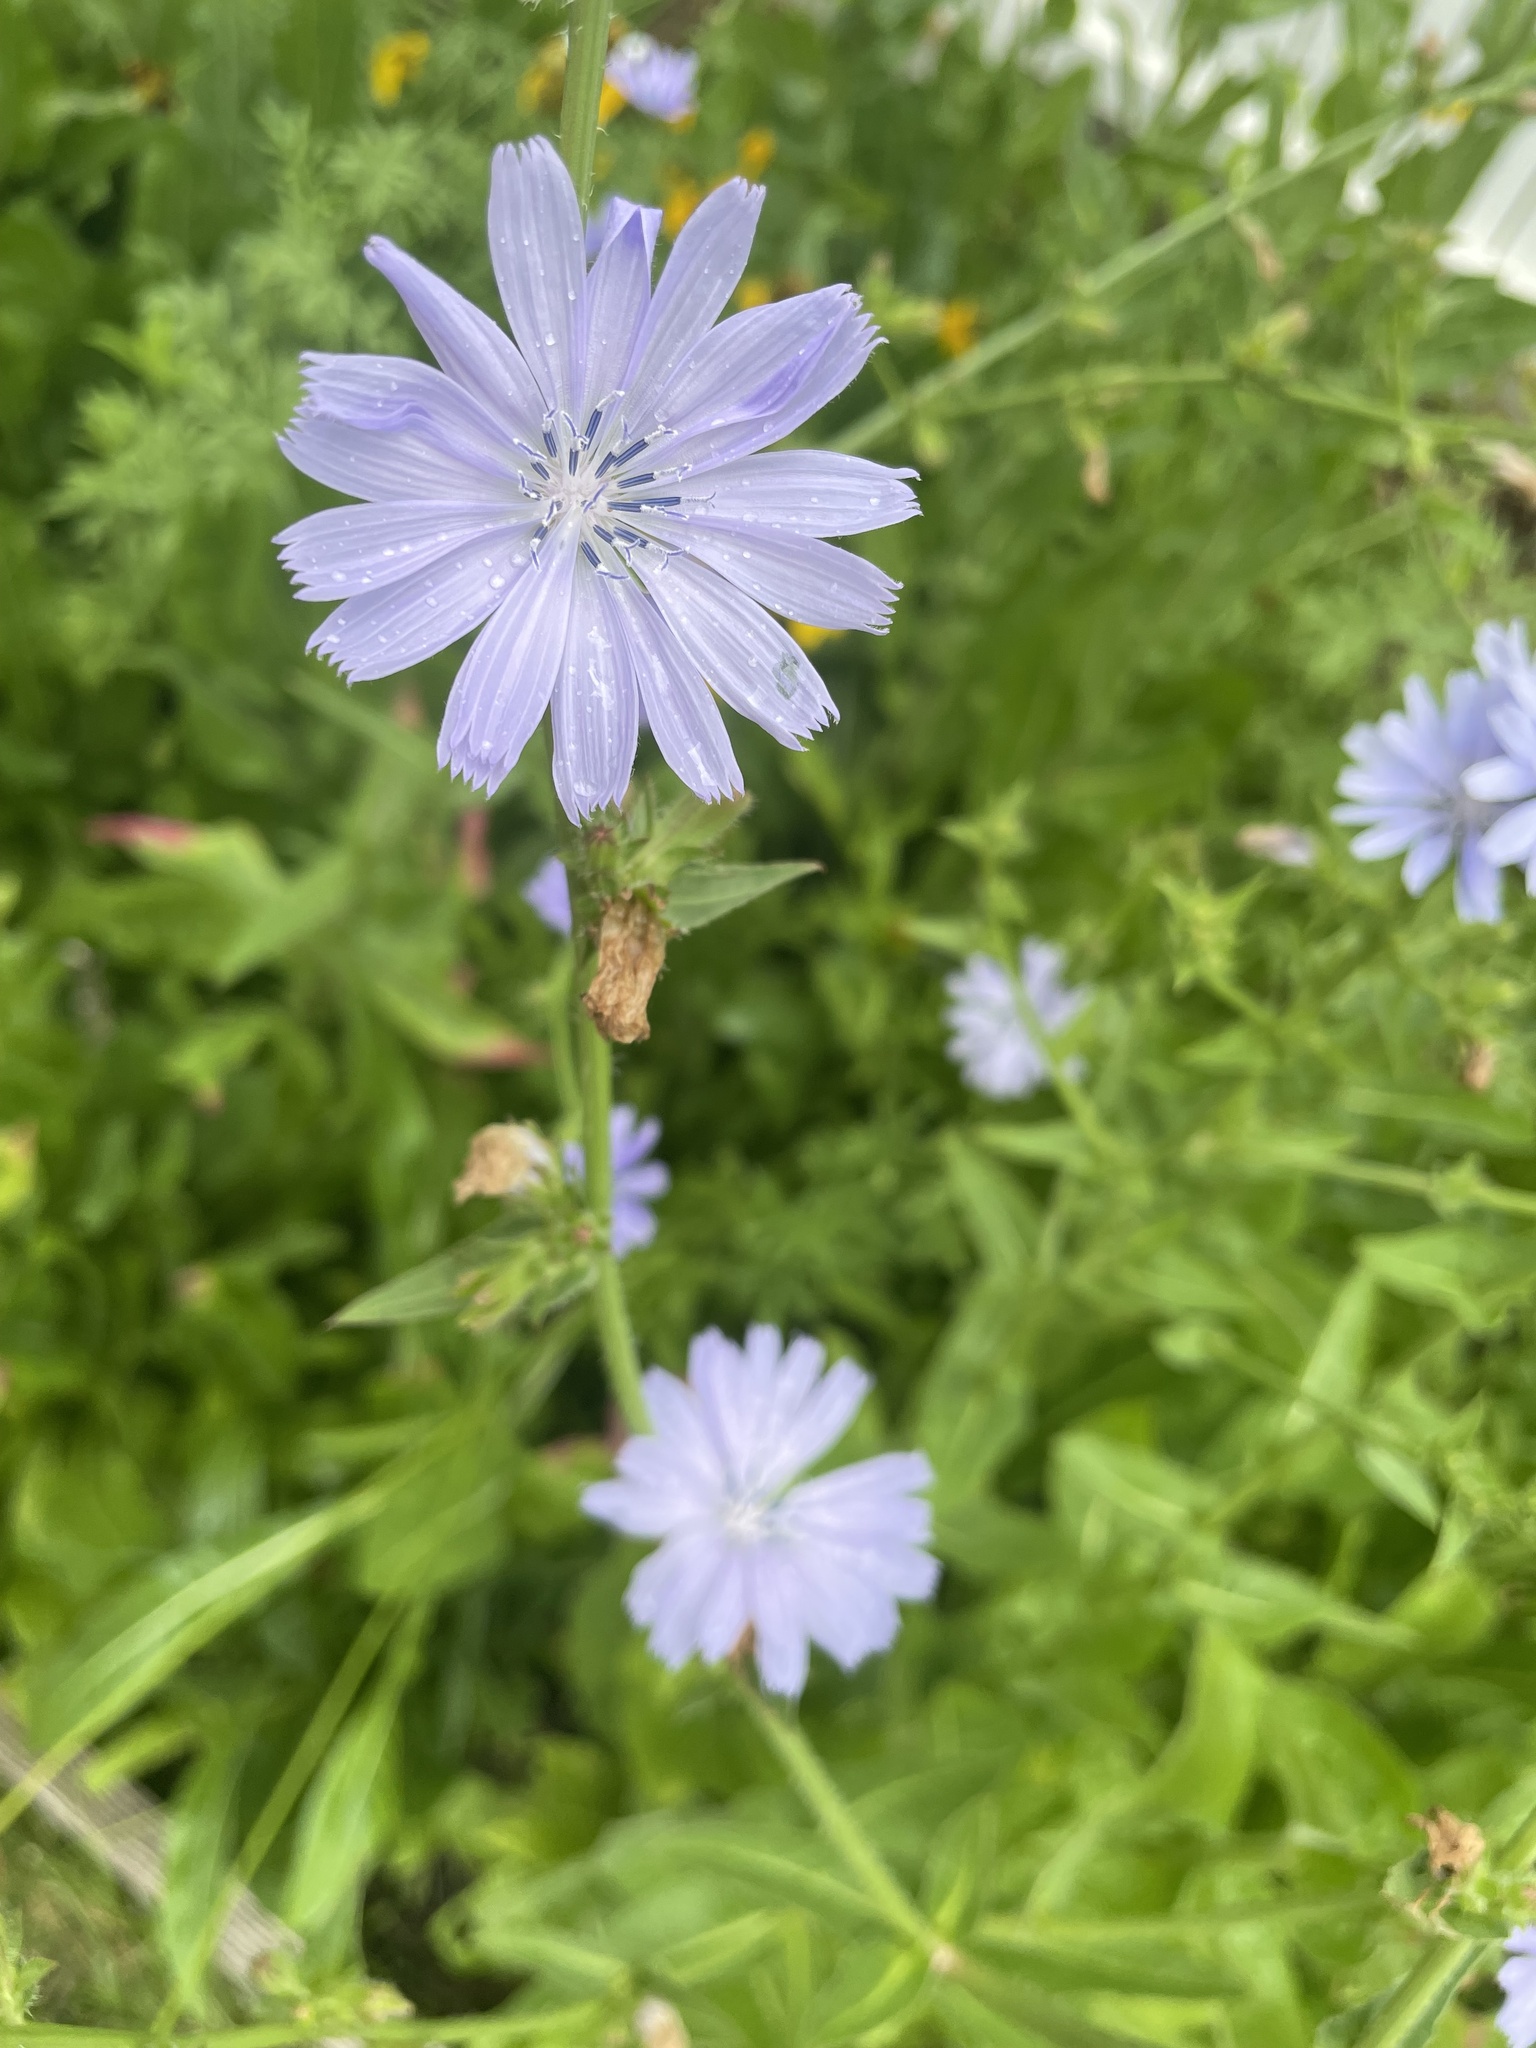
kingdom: Plantae
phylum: Tracheophyta
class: Magnoliopsida
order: Asterales
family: Asteraceae
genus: Cichorium
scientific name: Cichorium intybus
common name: Chicory
